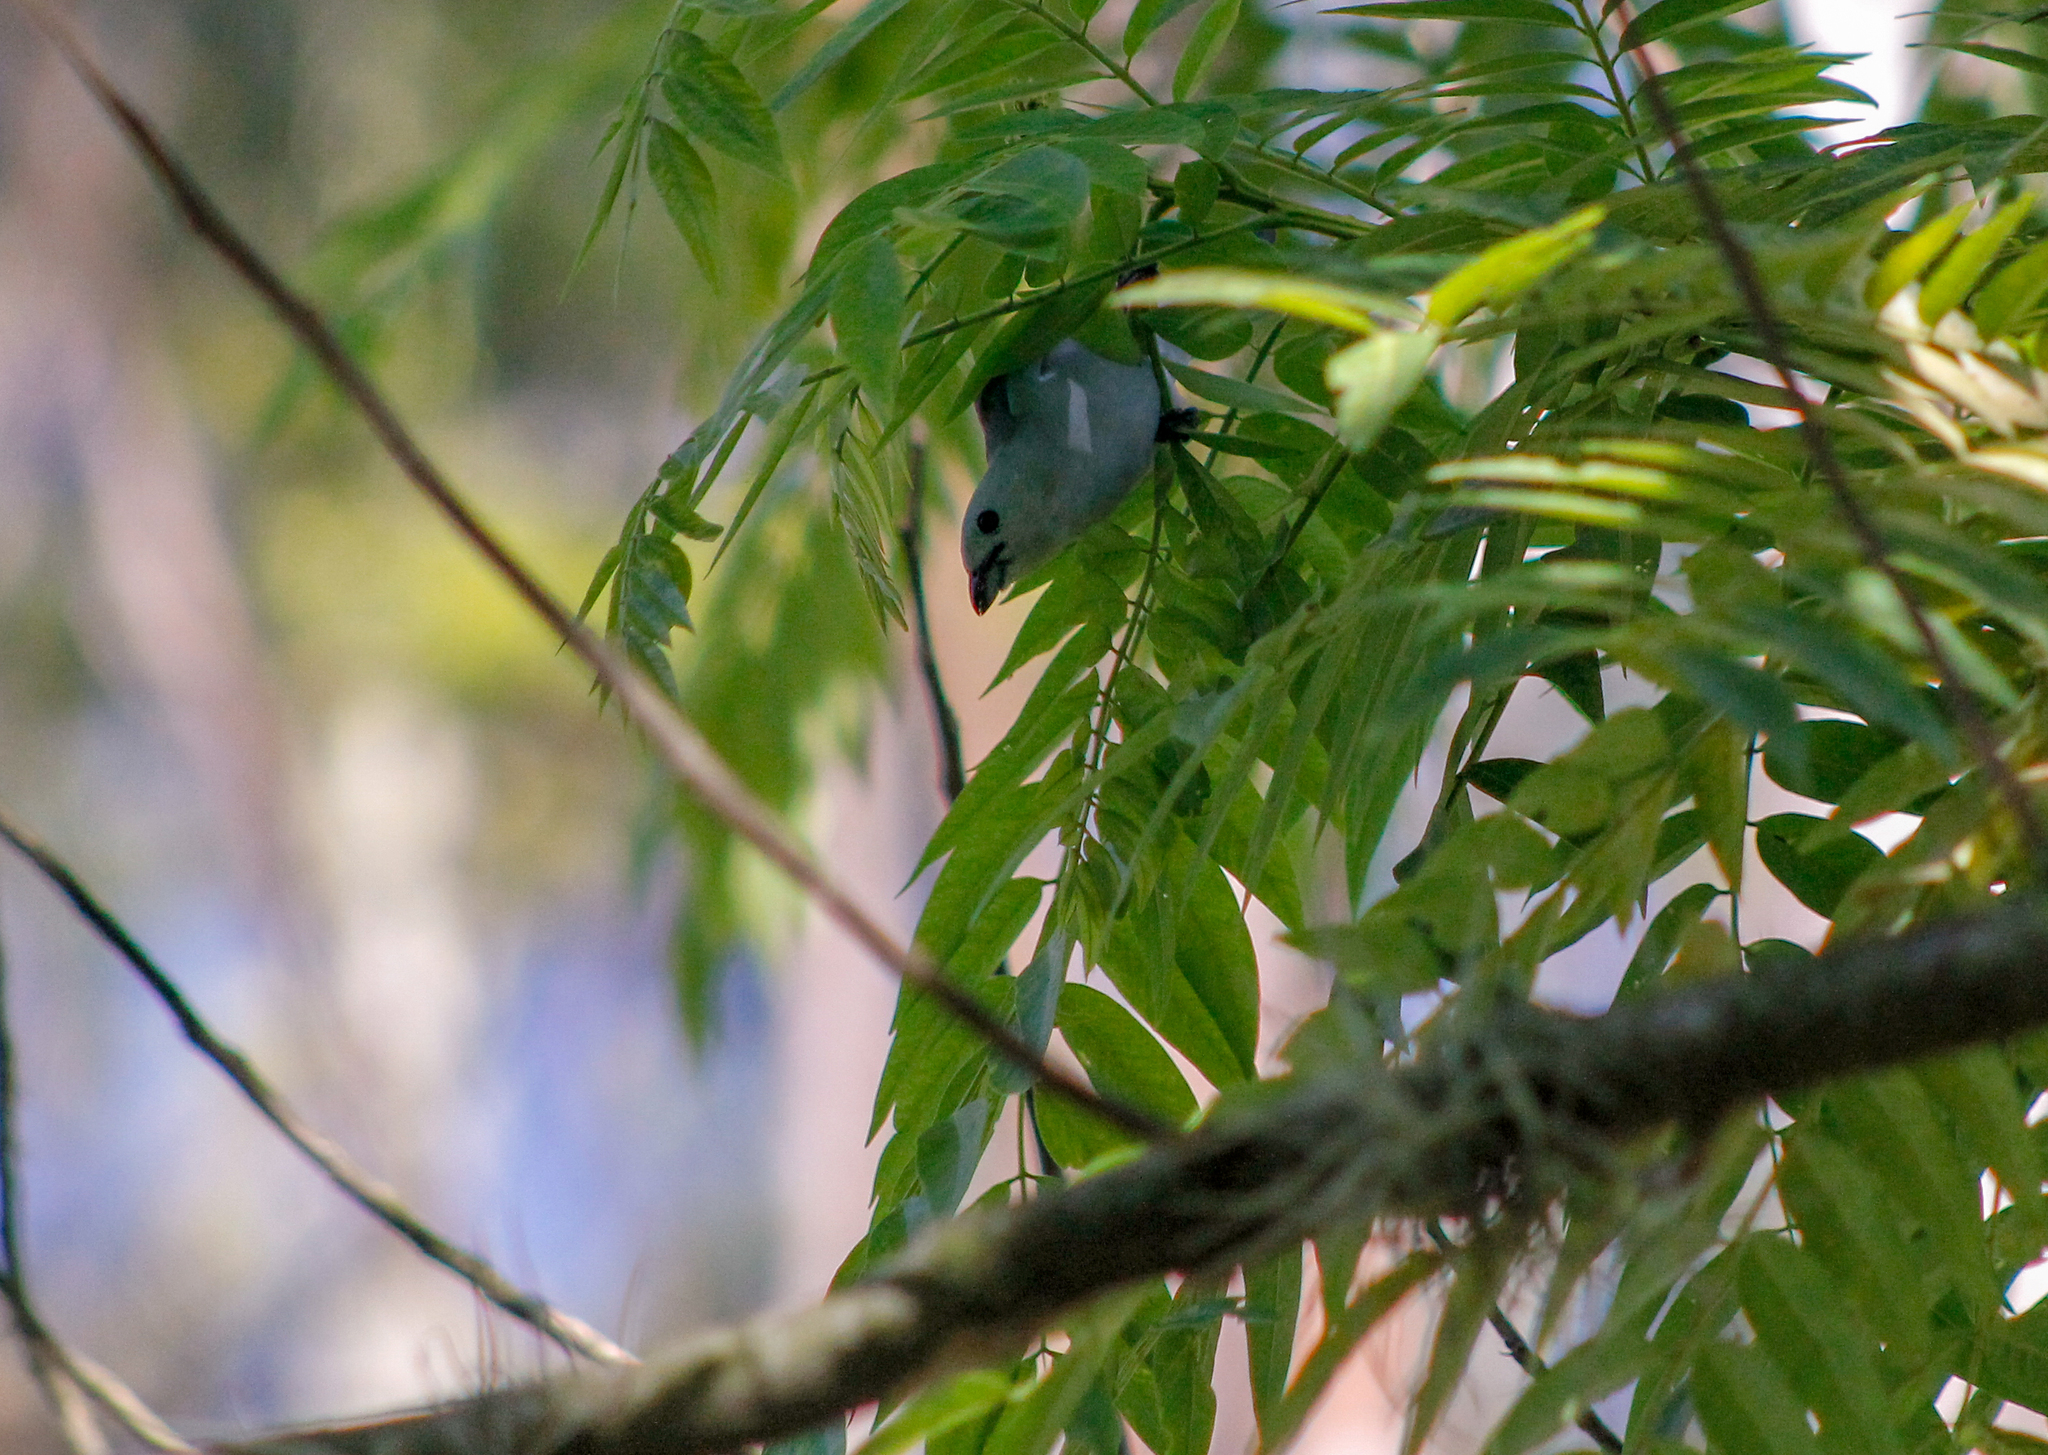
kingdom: Animalia
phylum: Chordata
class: Aves
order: Passeriformes
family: Thraupidae
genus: Thraupis
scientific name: Thraupis episcopus
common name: Blue-grey tanager
